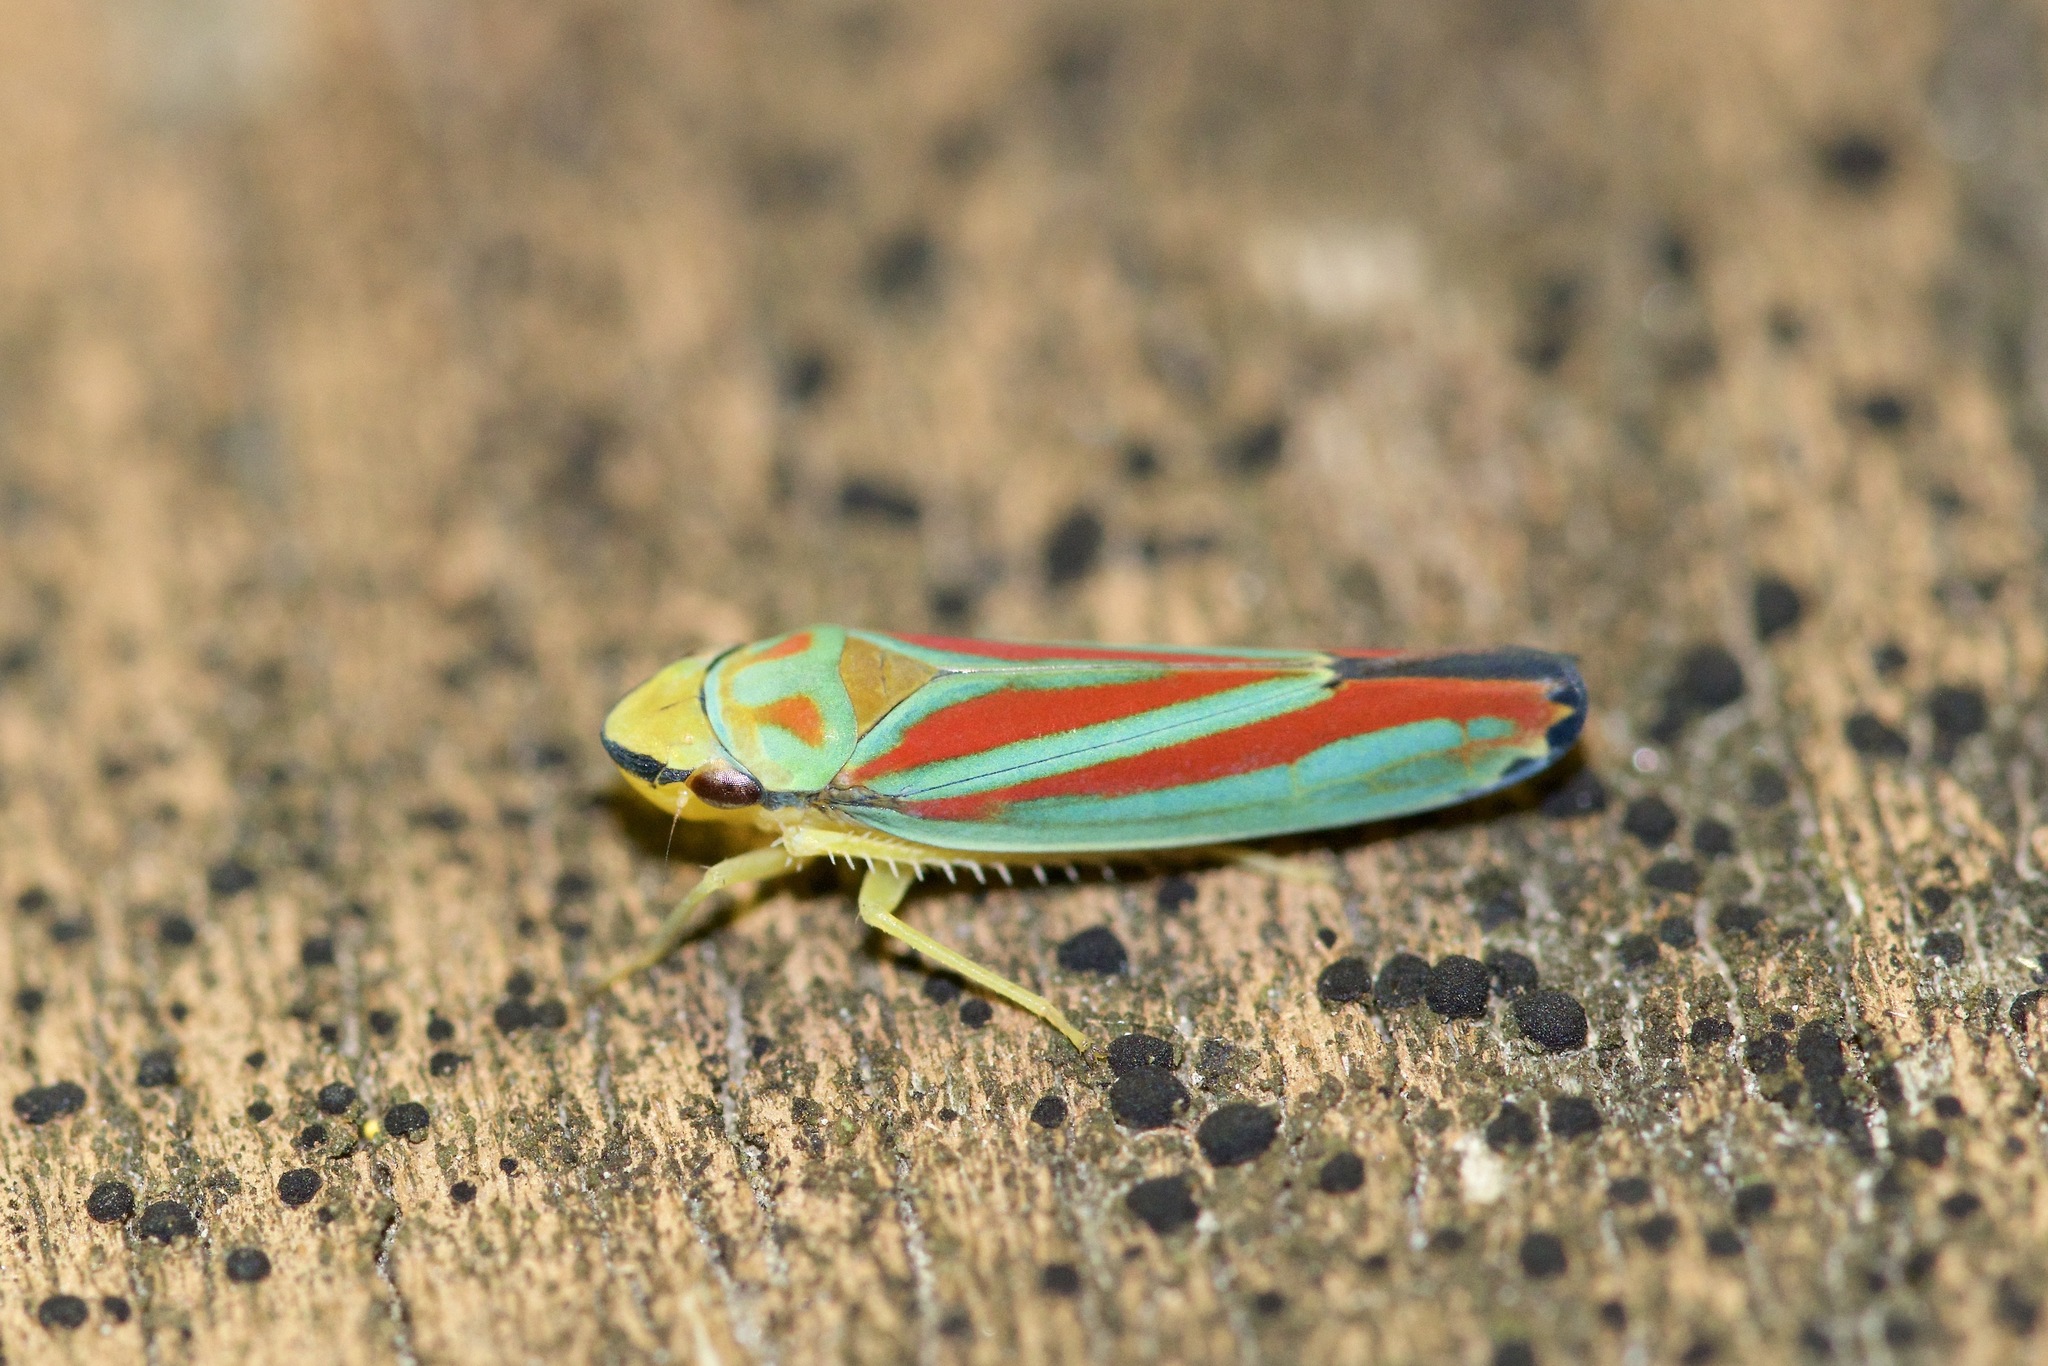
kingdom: Animalia
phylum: Arthropoda
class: Insecta
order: Hemiptera
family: Cicadellidae
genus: Graphocephala
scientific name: Graphocephala coccinea
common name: Candy-striped leafhopper
